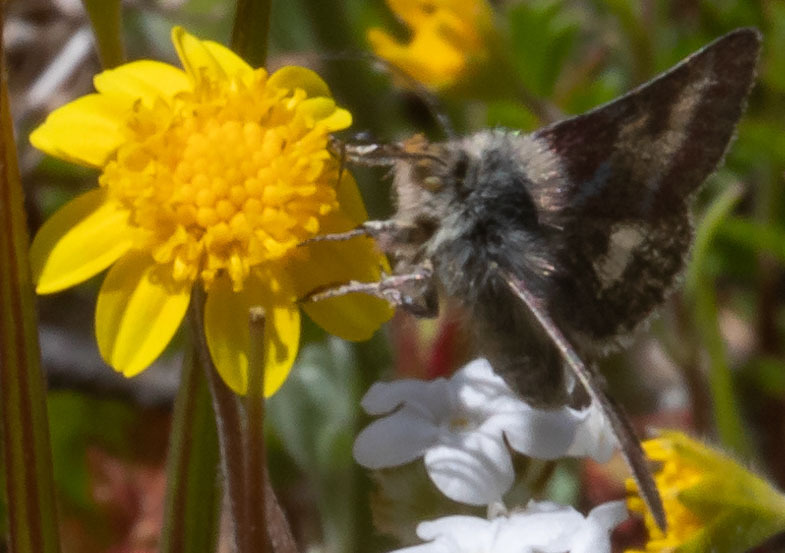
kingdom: Animalia
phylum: Arthropoda
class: Insecta
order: Lepidoptera
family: Noctuidae
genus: Schinia
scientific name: Schinia pulchripennis
